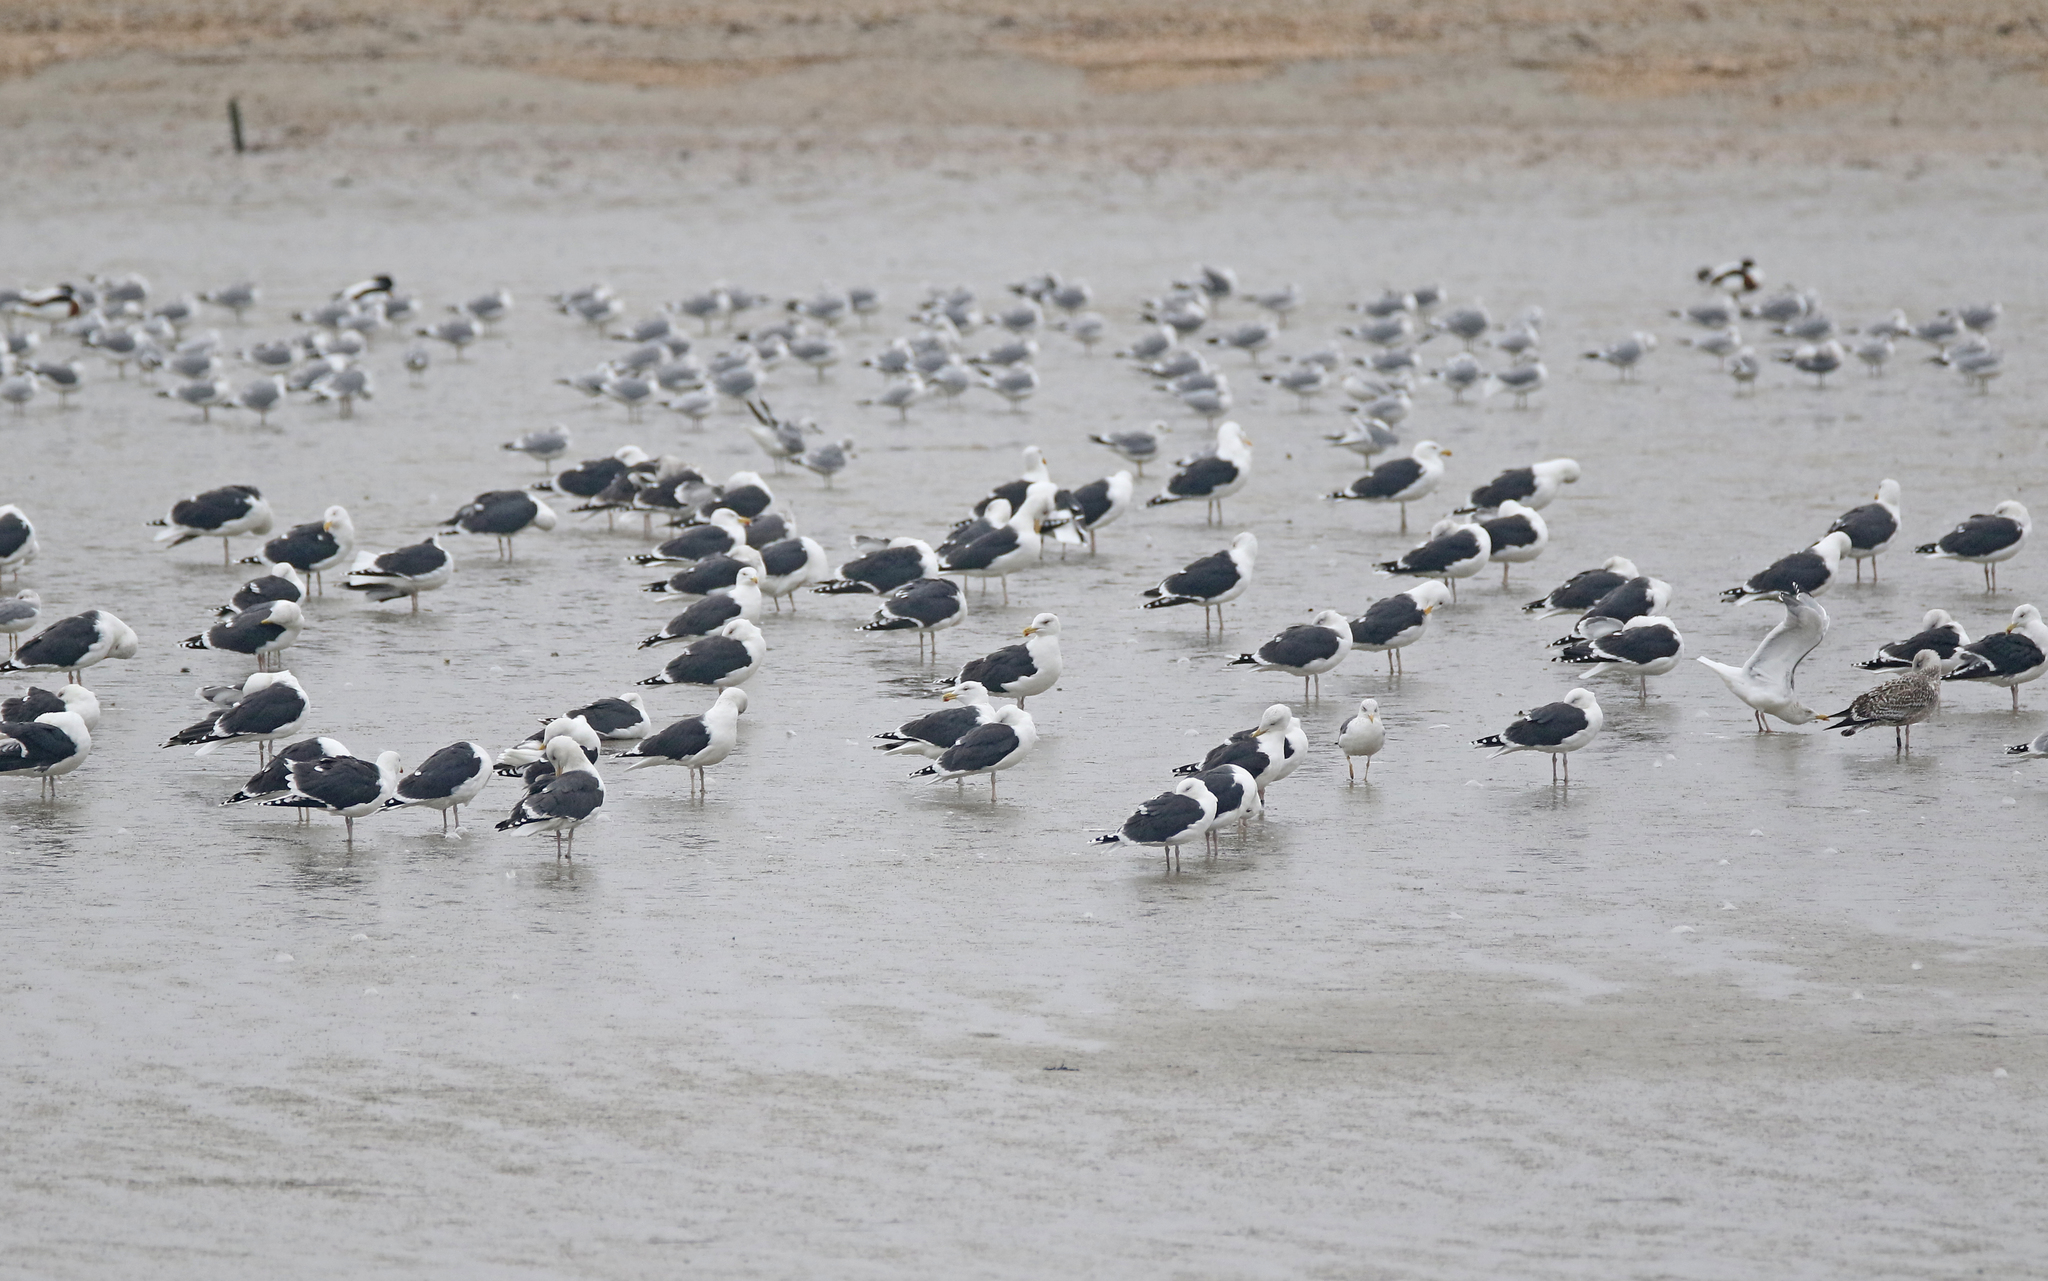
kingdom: Animalia
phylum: Chordata
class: Aves
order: Charadriiformes
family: Laridae
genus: Larus
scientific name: Larus marinus
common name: Great black-backed gull
